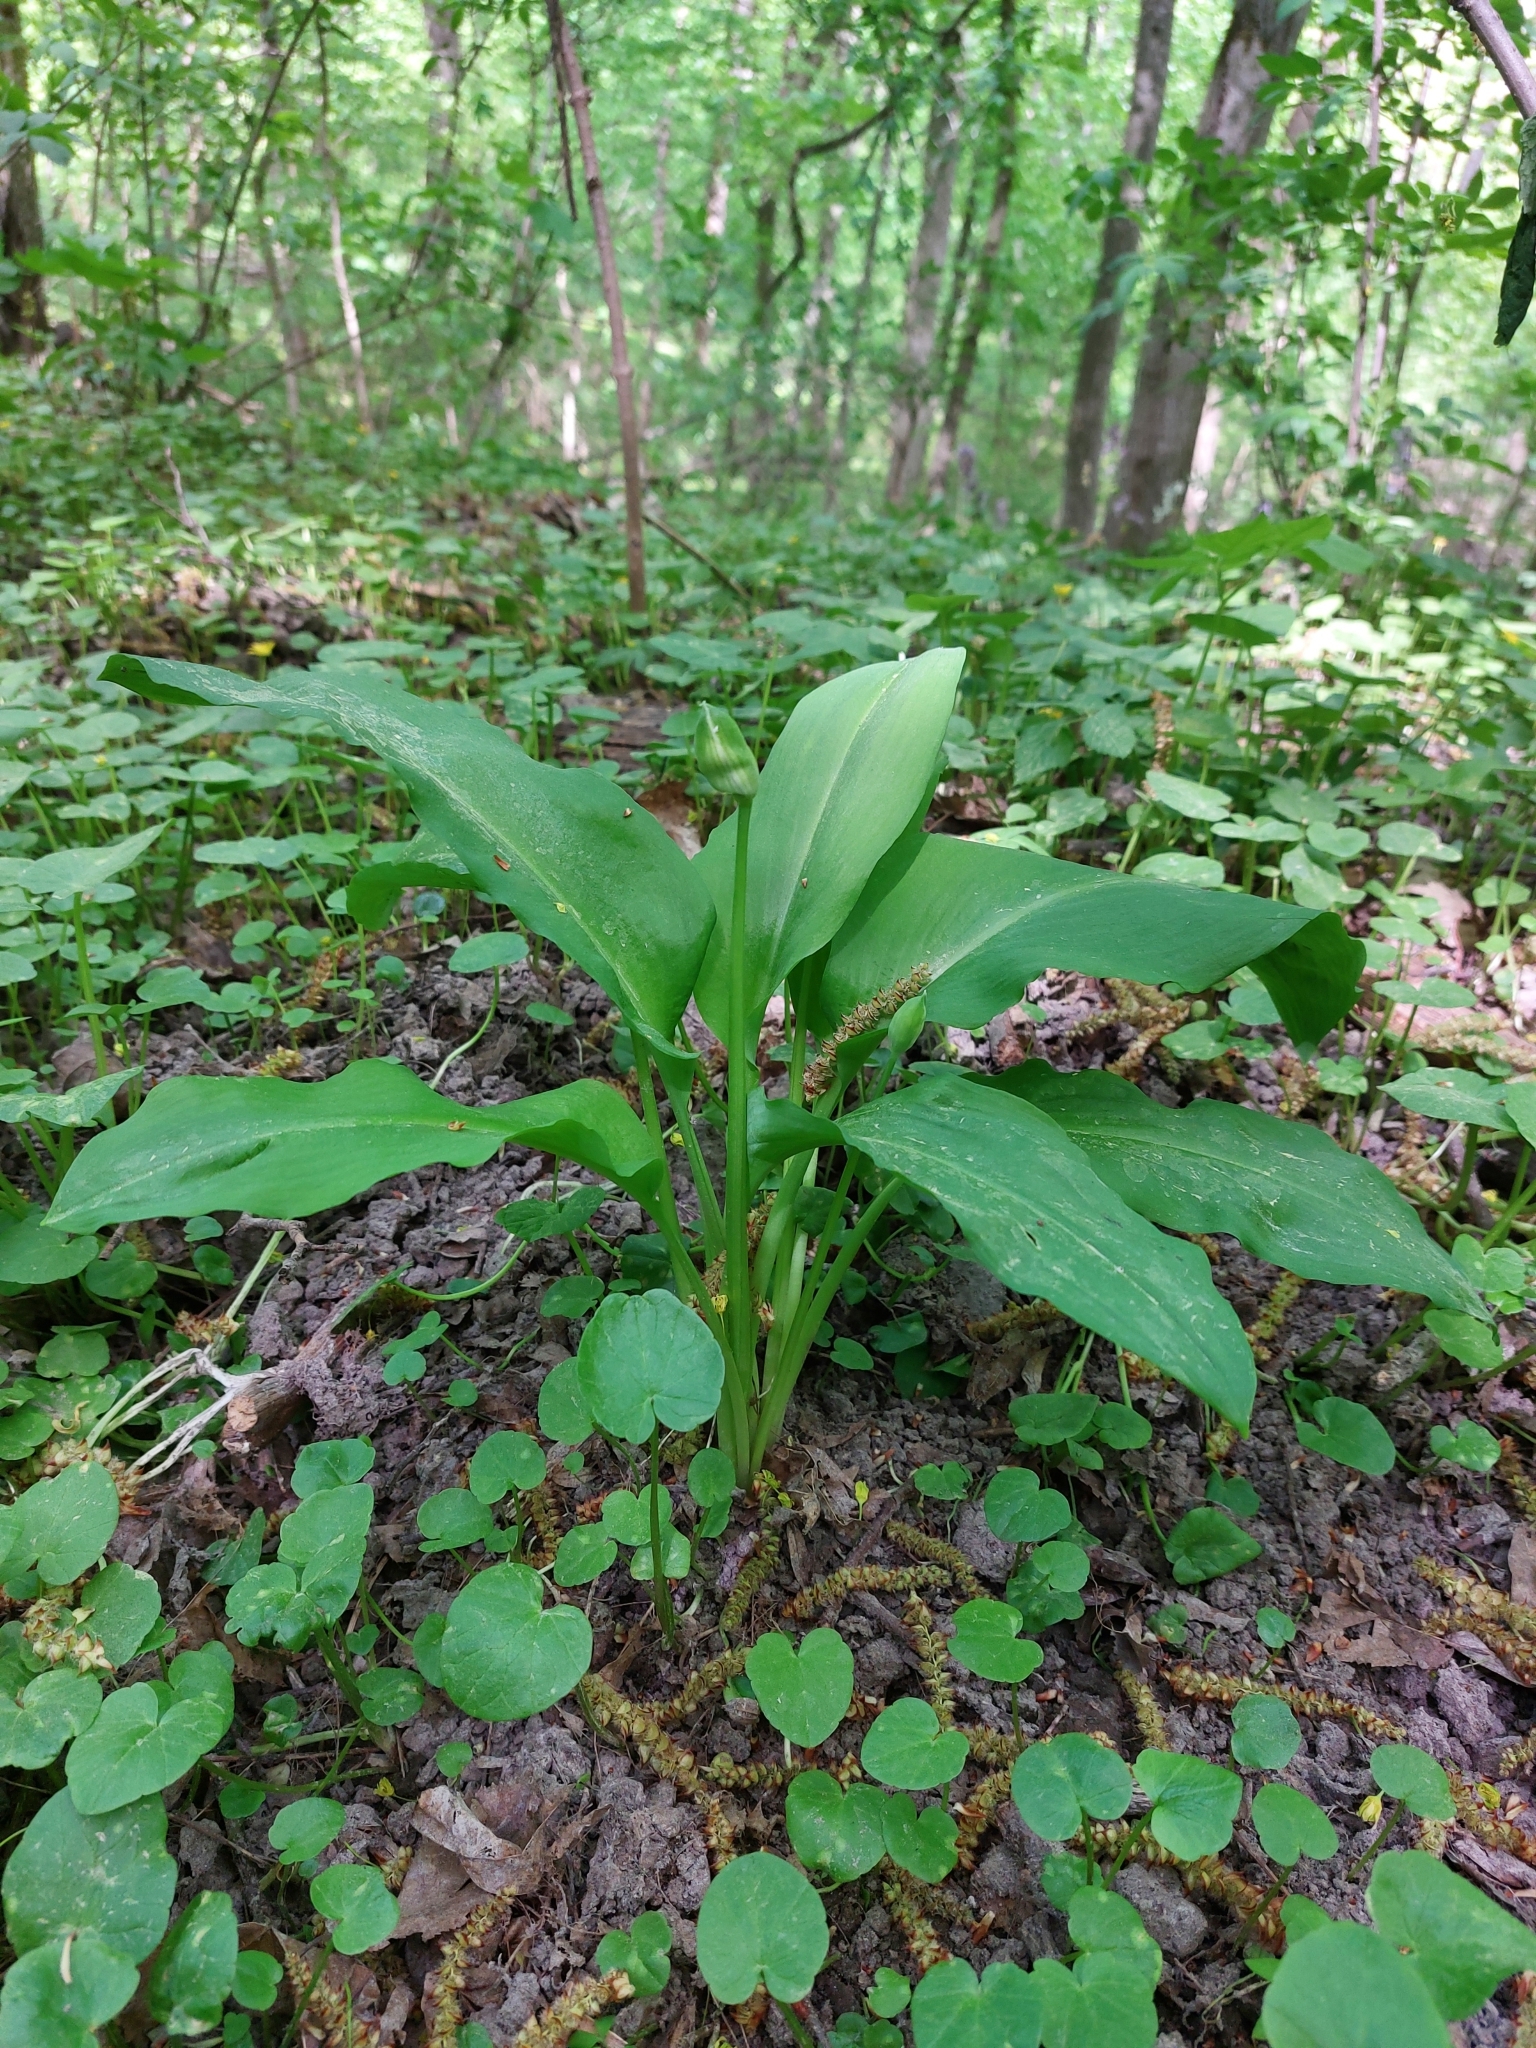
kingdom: Plantae
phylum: Tracheophyta
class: Liliopsida
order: Asparagales
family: Amaryllidaceae
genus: Allium
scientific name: Allium ursinum
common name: Ramsons
